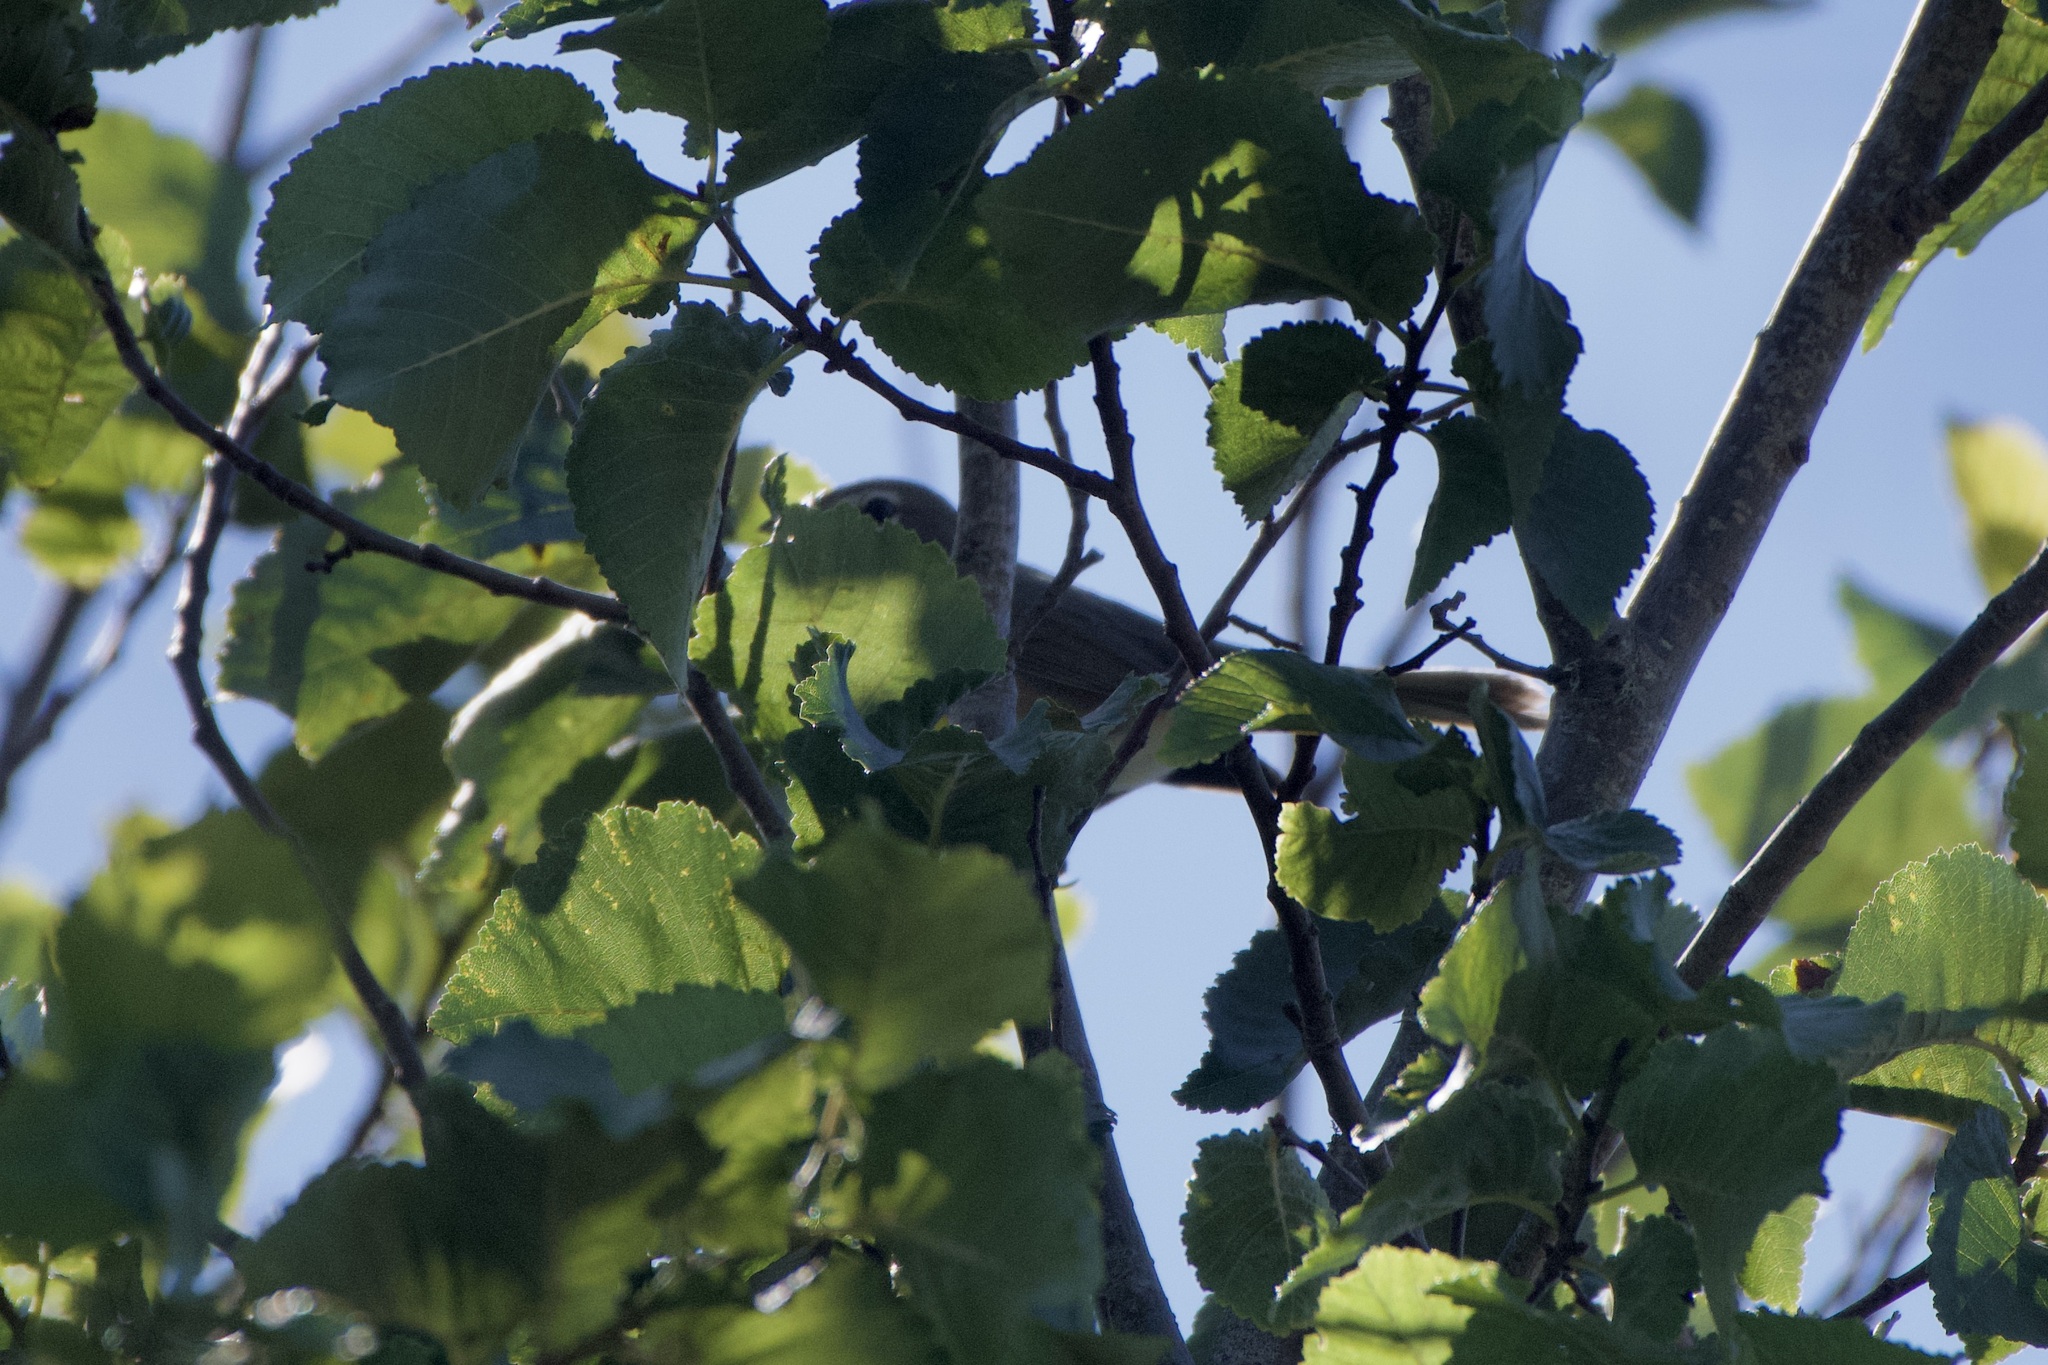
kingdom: Animalia
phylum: Chordata
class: Aves
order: Passeriformes
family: Parulidae
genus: Icteria
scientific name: Icteria virens
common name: Yellow-breasted chat
